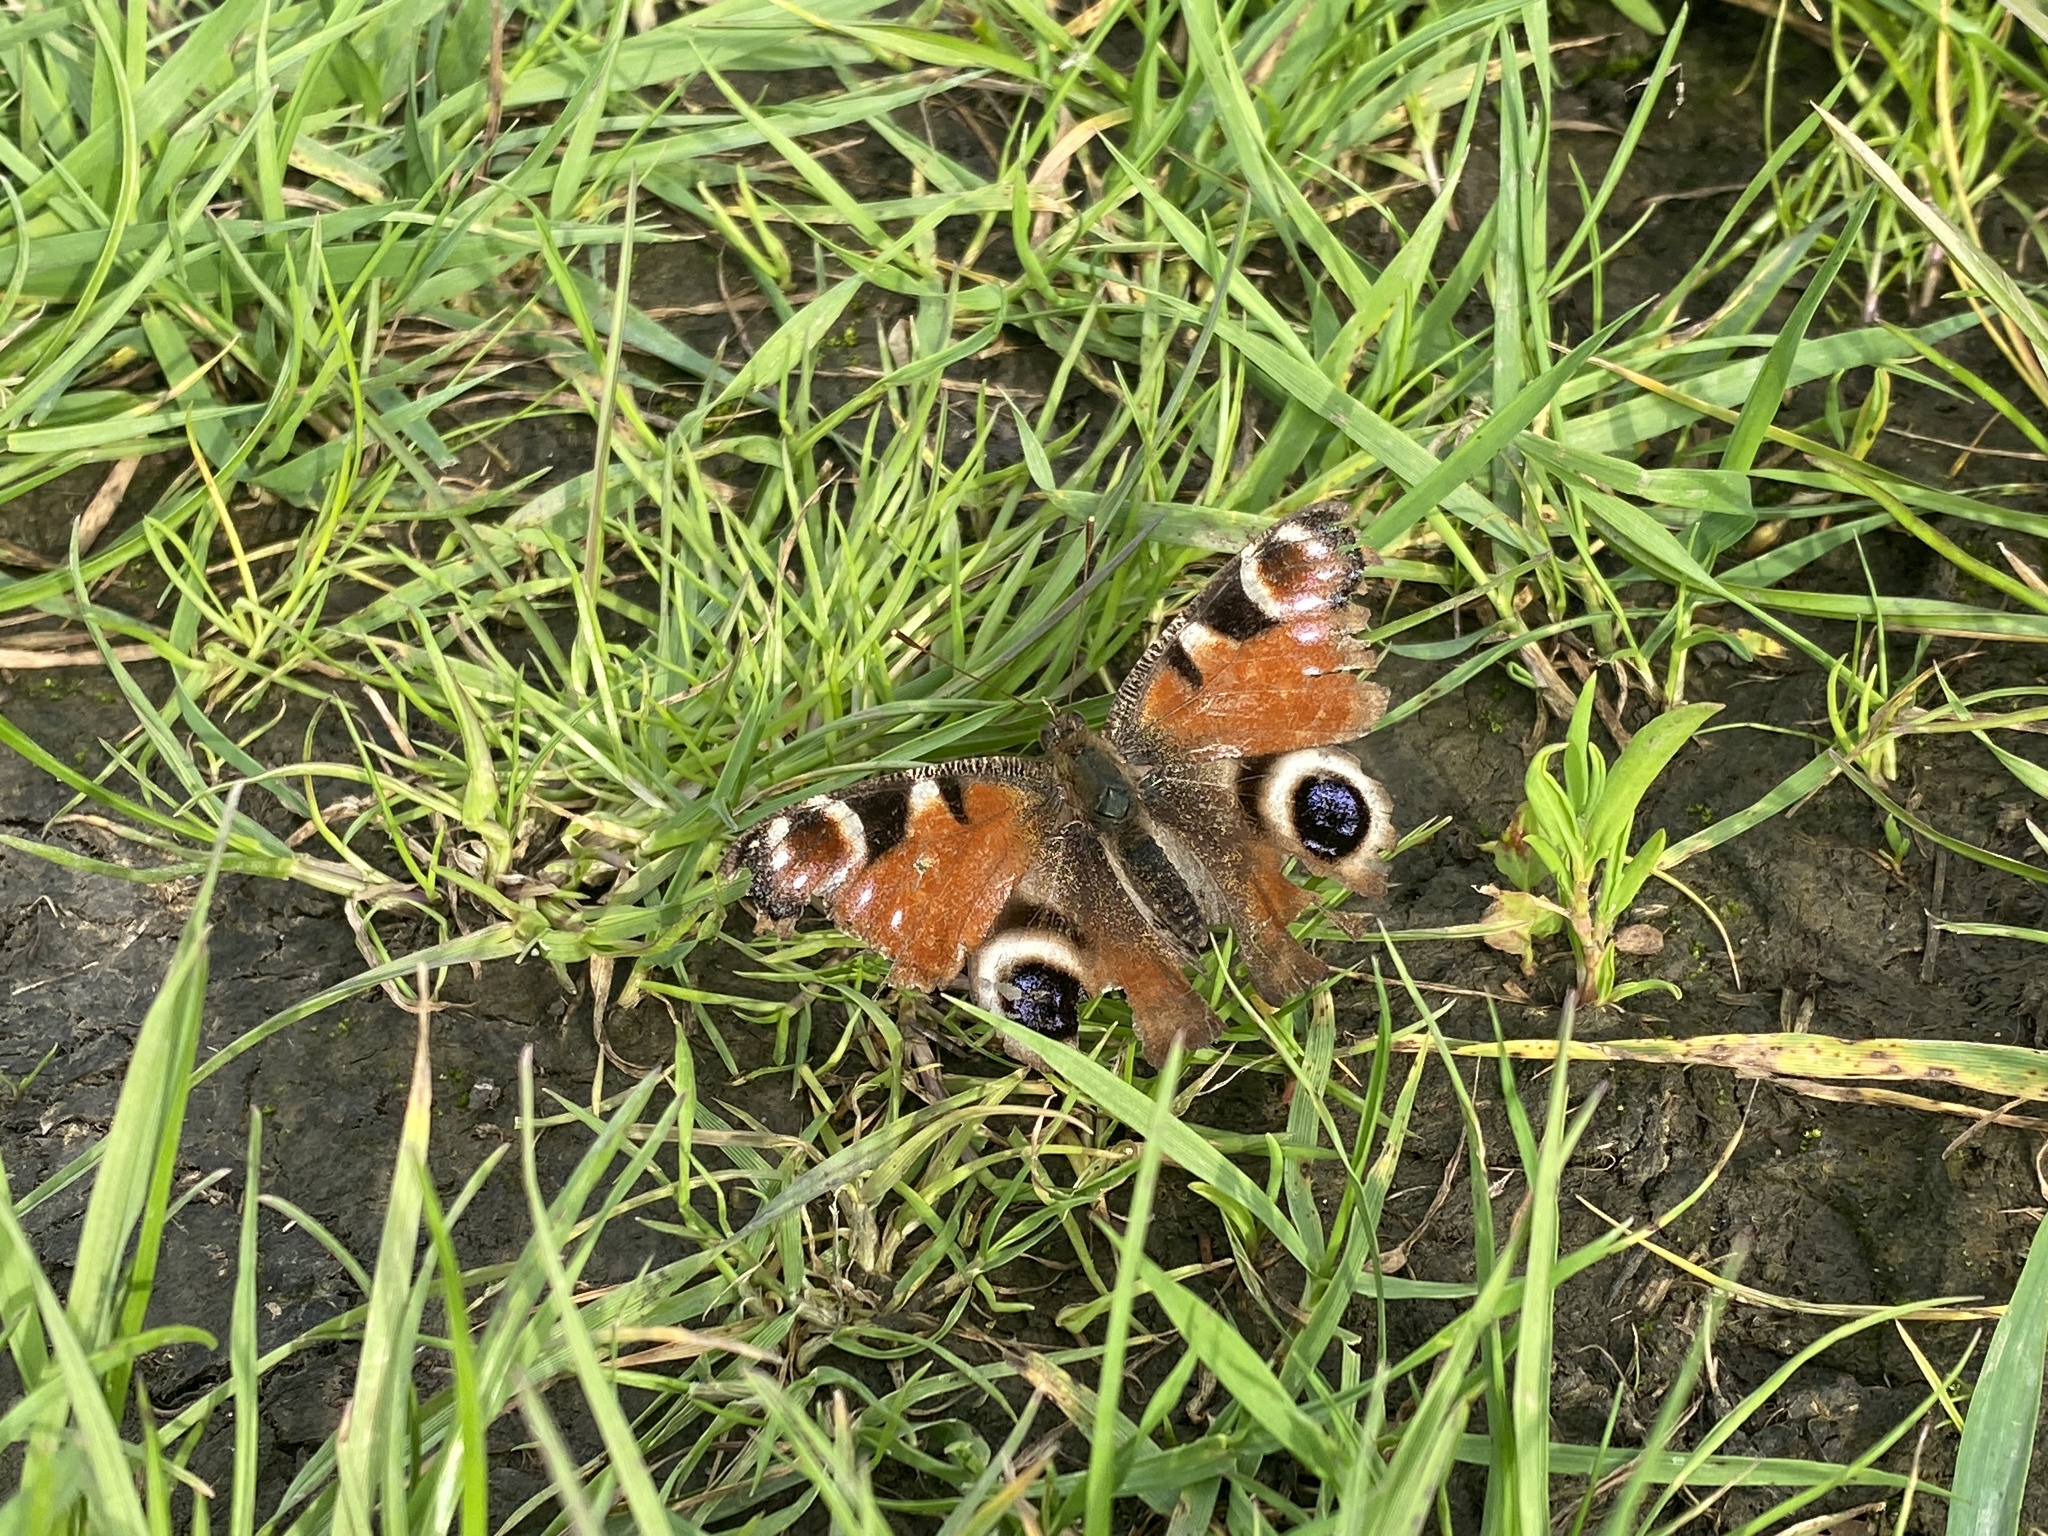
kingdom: Animalia
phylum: Arthropoda
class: Insecta
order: Lepidoptera
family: Nymphalidae
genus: Aglais
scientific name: Aglais io
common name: Peacock
